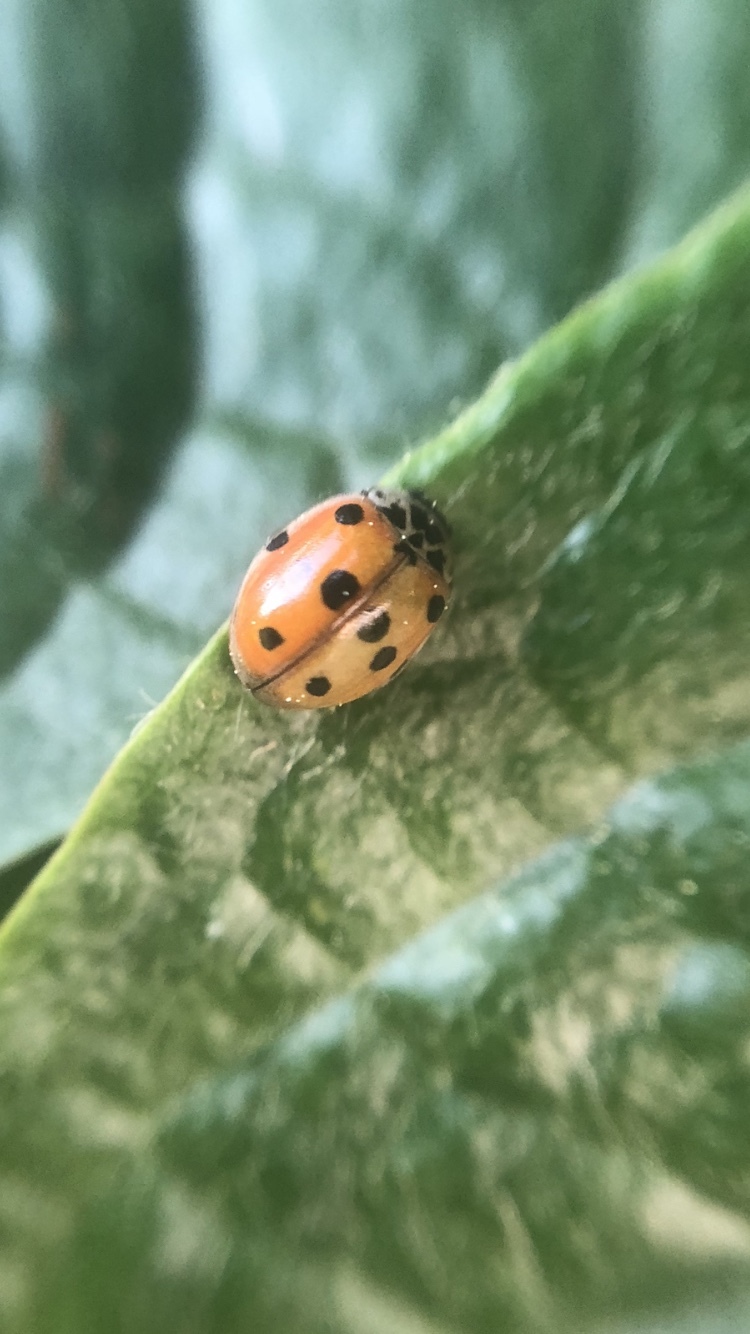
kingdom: Animalia
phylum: Arthropoda
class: Insecta
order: Coleoptera
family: Coccinellidae
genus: Adalia
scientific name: Adalia decempunctata
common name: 10-spot ladybird
